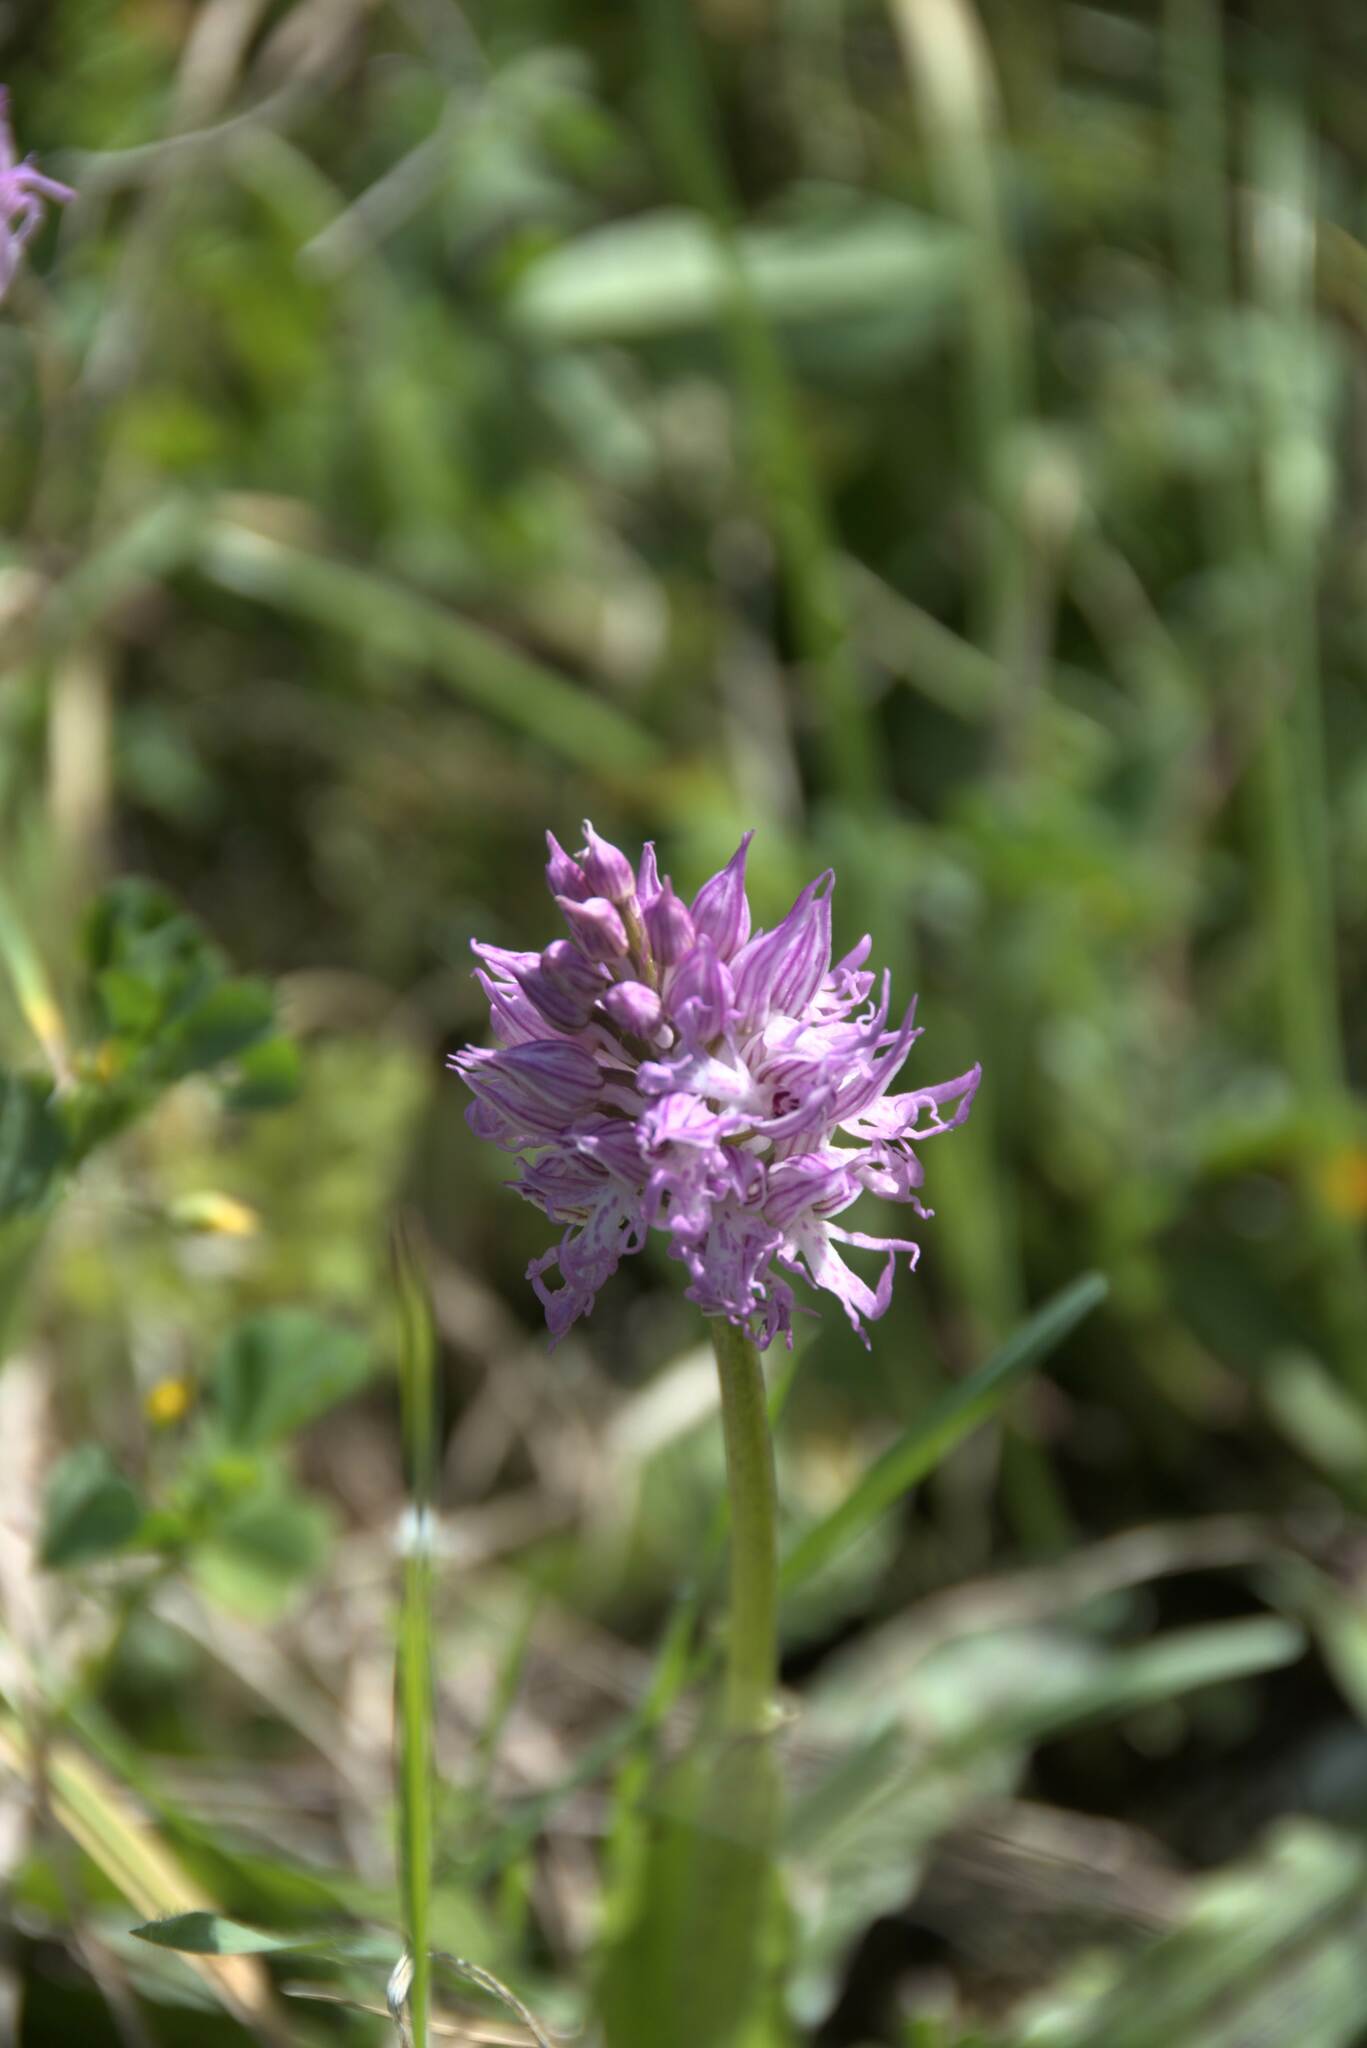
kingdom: Plantae
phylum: Tracheophyta
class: Liliopsida
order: Asparagales
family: Orchidaceae
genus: Orchis
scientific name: Orchis italica
